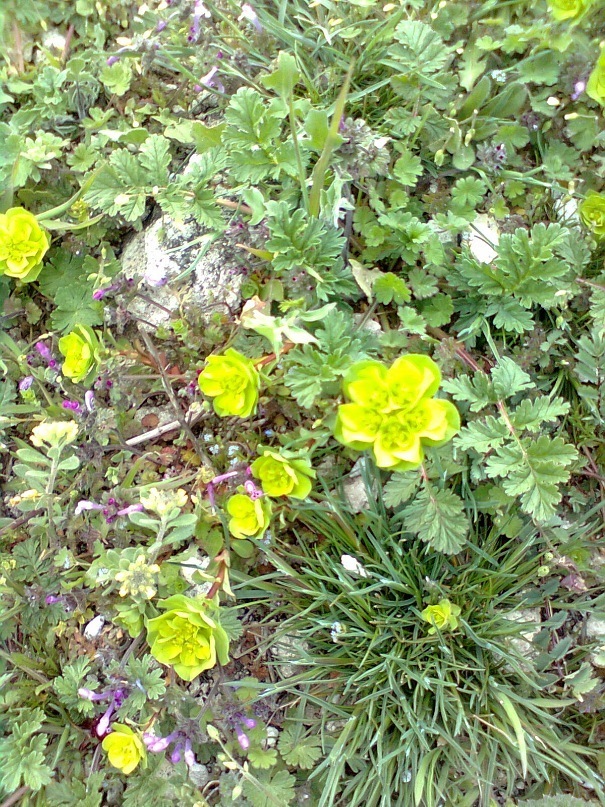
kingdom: Plantae
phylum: Tracheophyta
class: Magnoliopsida
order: Malpighiales
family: Euphorbiaceae
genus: Euphorbia
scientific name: Euphorbia helioscopia
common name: Sun spurge
